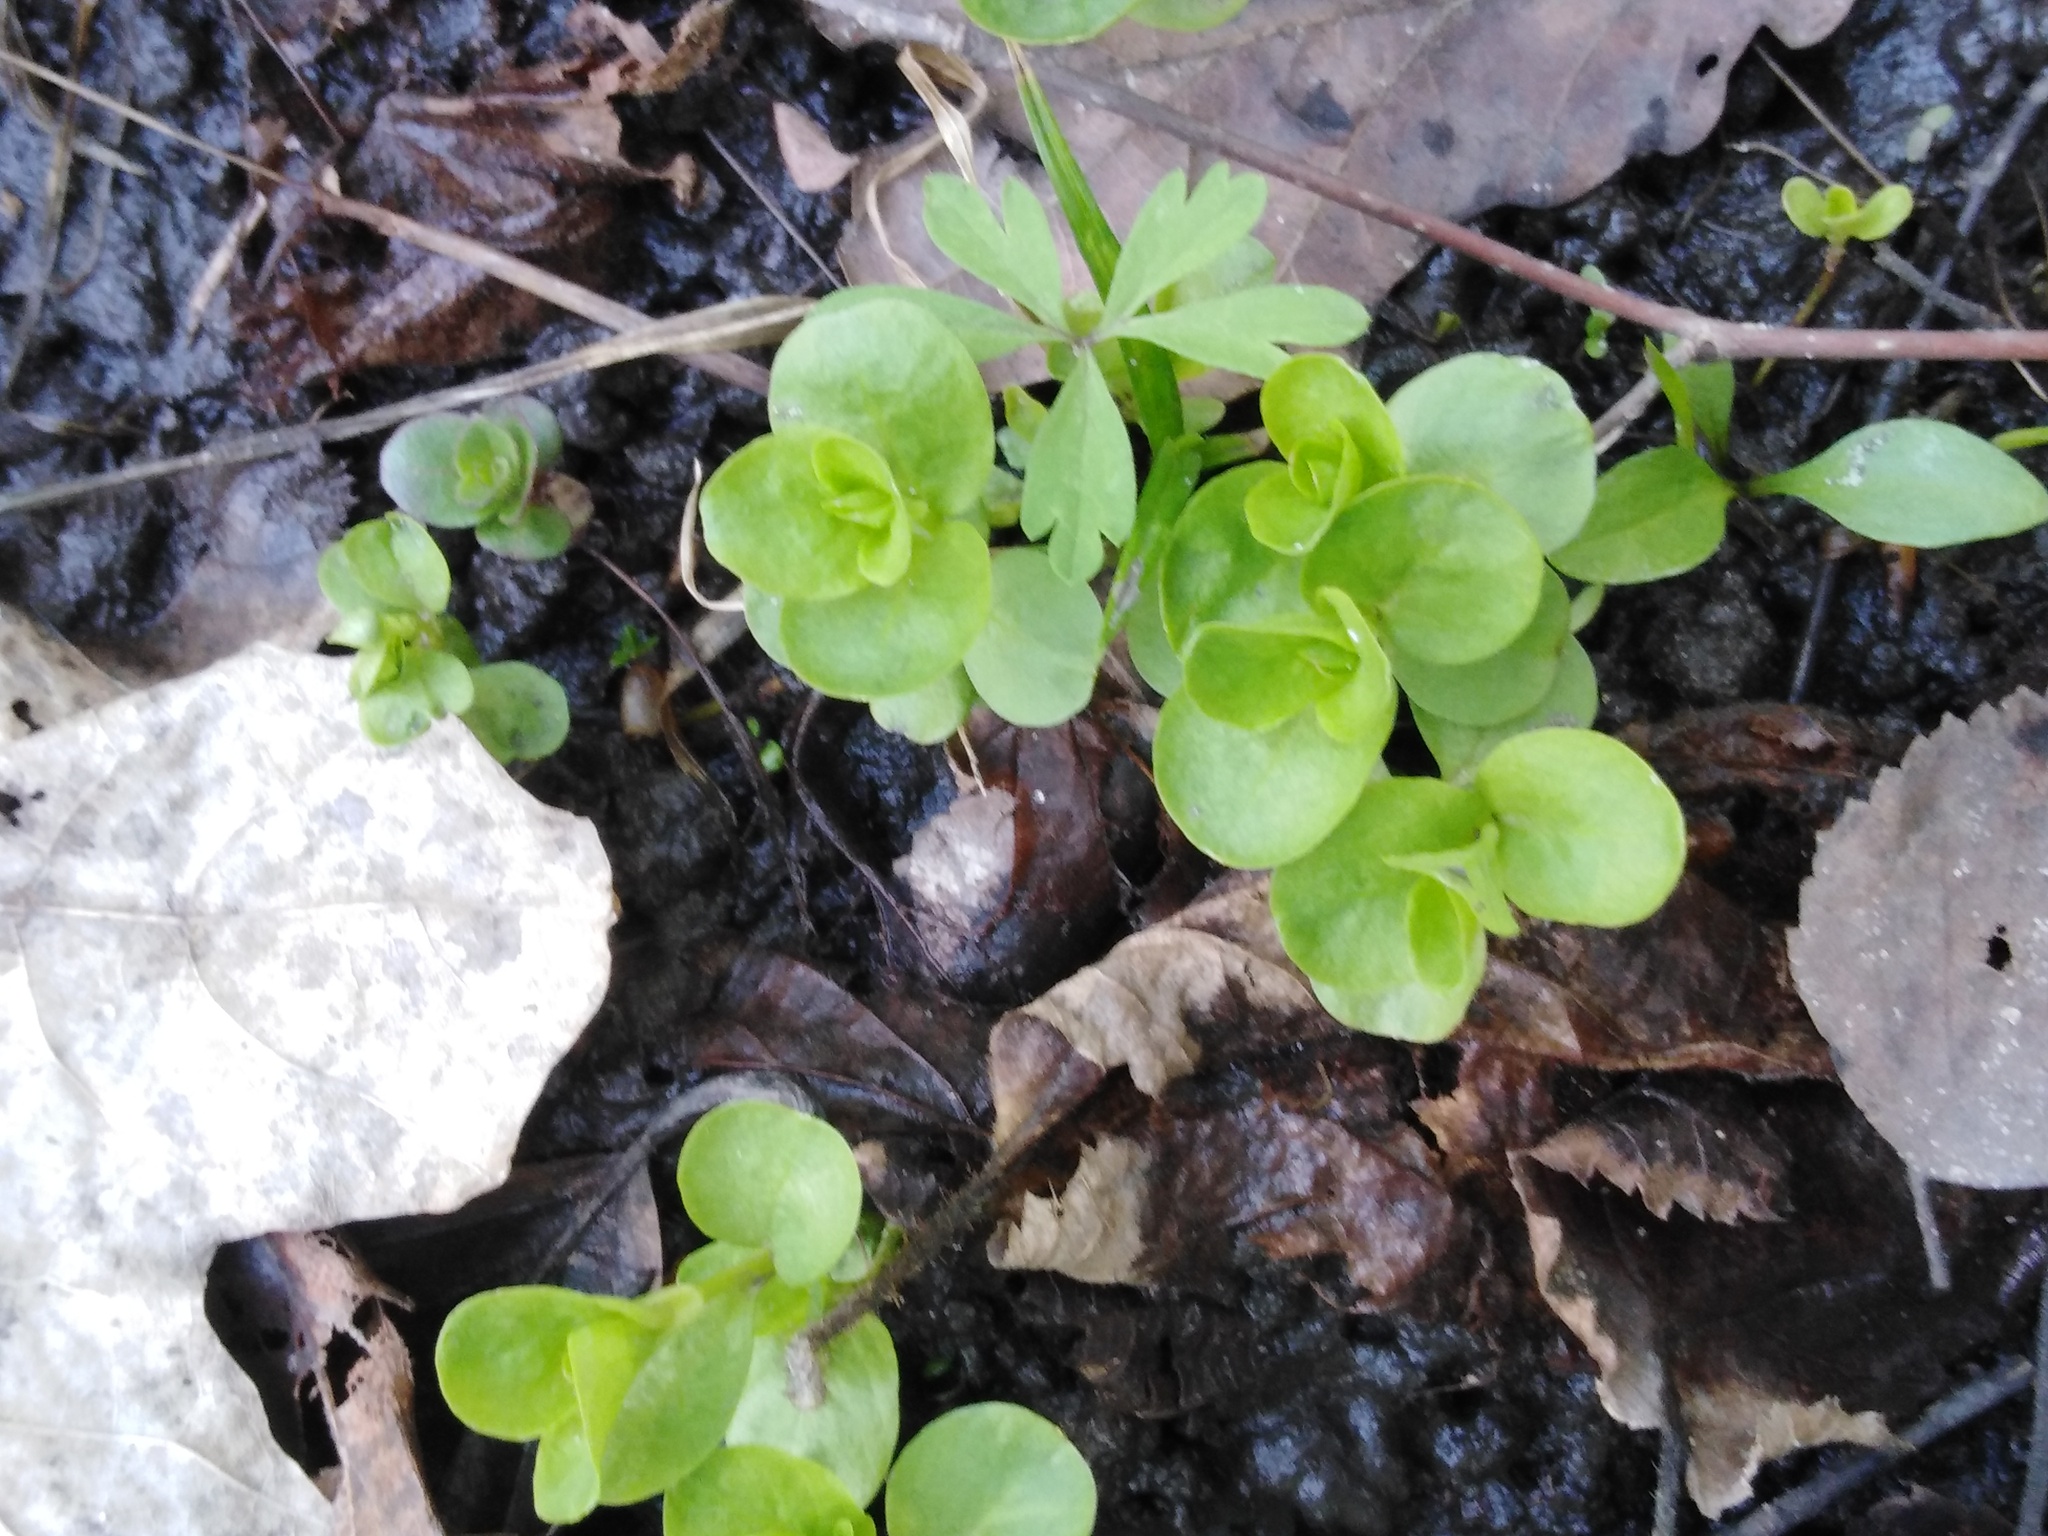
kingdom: Plantae
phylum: Tracheophyta
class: Magnoliopsida
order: Ericales
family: Primulaceae
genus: Lysimachia
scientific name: Lysimachia nummularia
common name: Moneywort
